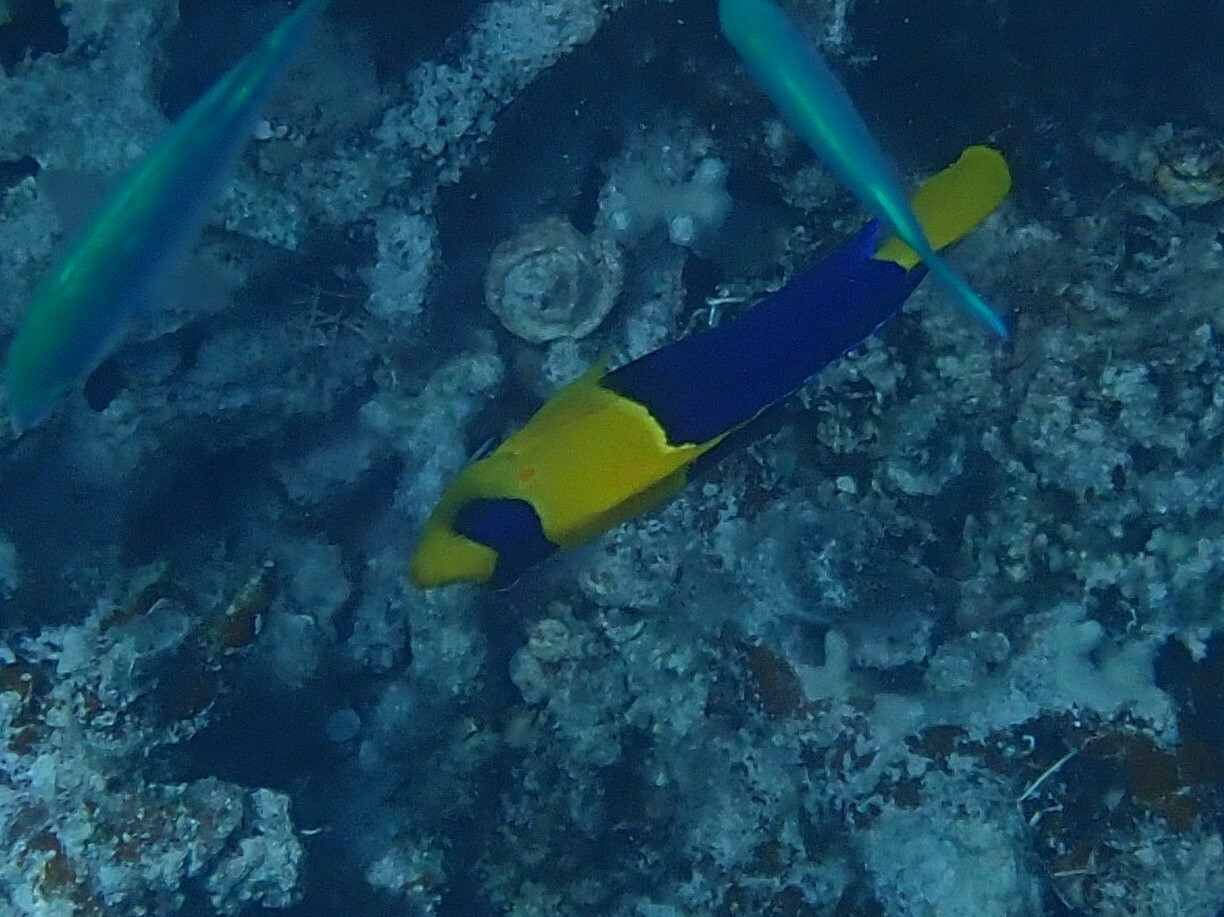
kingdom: Animalia
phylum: Chordata
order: Perciformes
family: Pomacanthidae
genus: Centropyge
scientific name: Centropyge bicolor
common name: Bicolor angelfish
